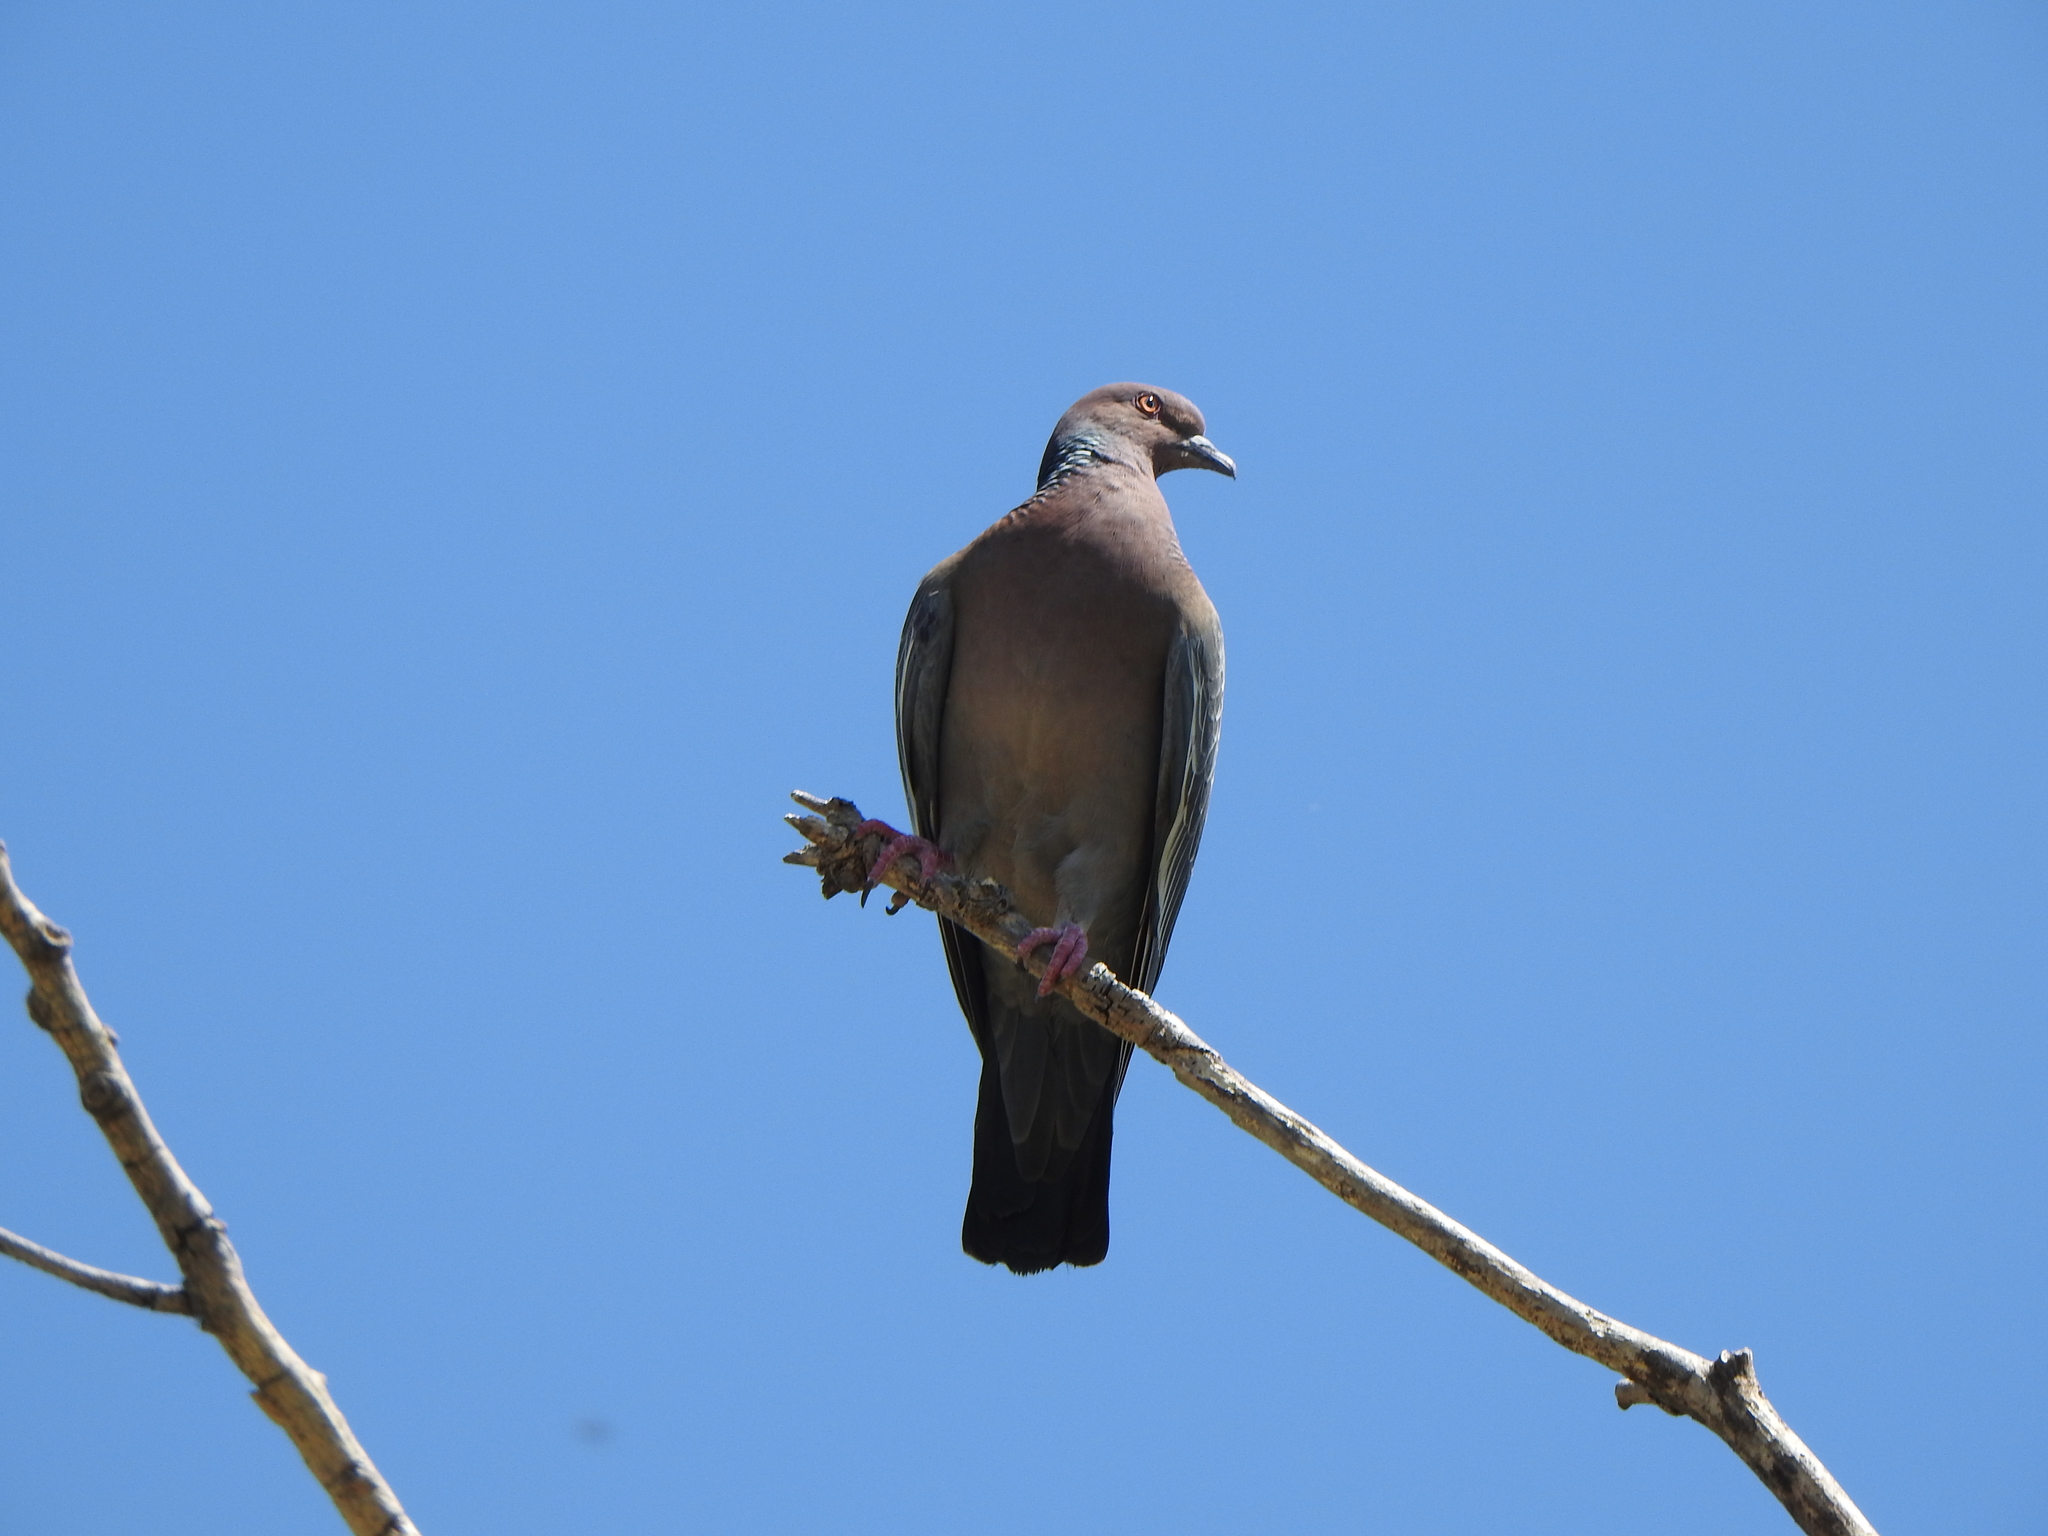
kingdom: Animalia
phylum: Chordata
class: Aves
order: Columbiformes
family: Columbidae
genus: Patagioenas
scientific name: Patagioenas picazuro
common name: Picazuro pigeon
